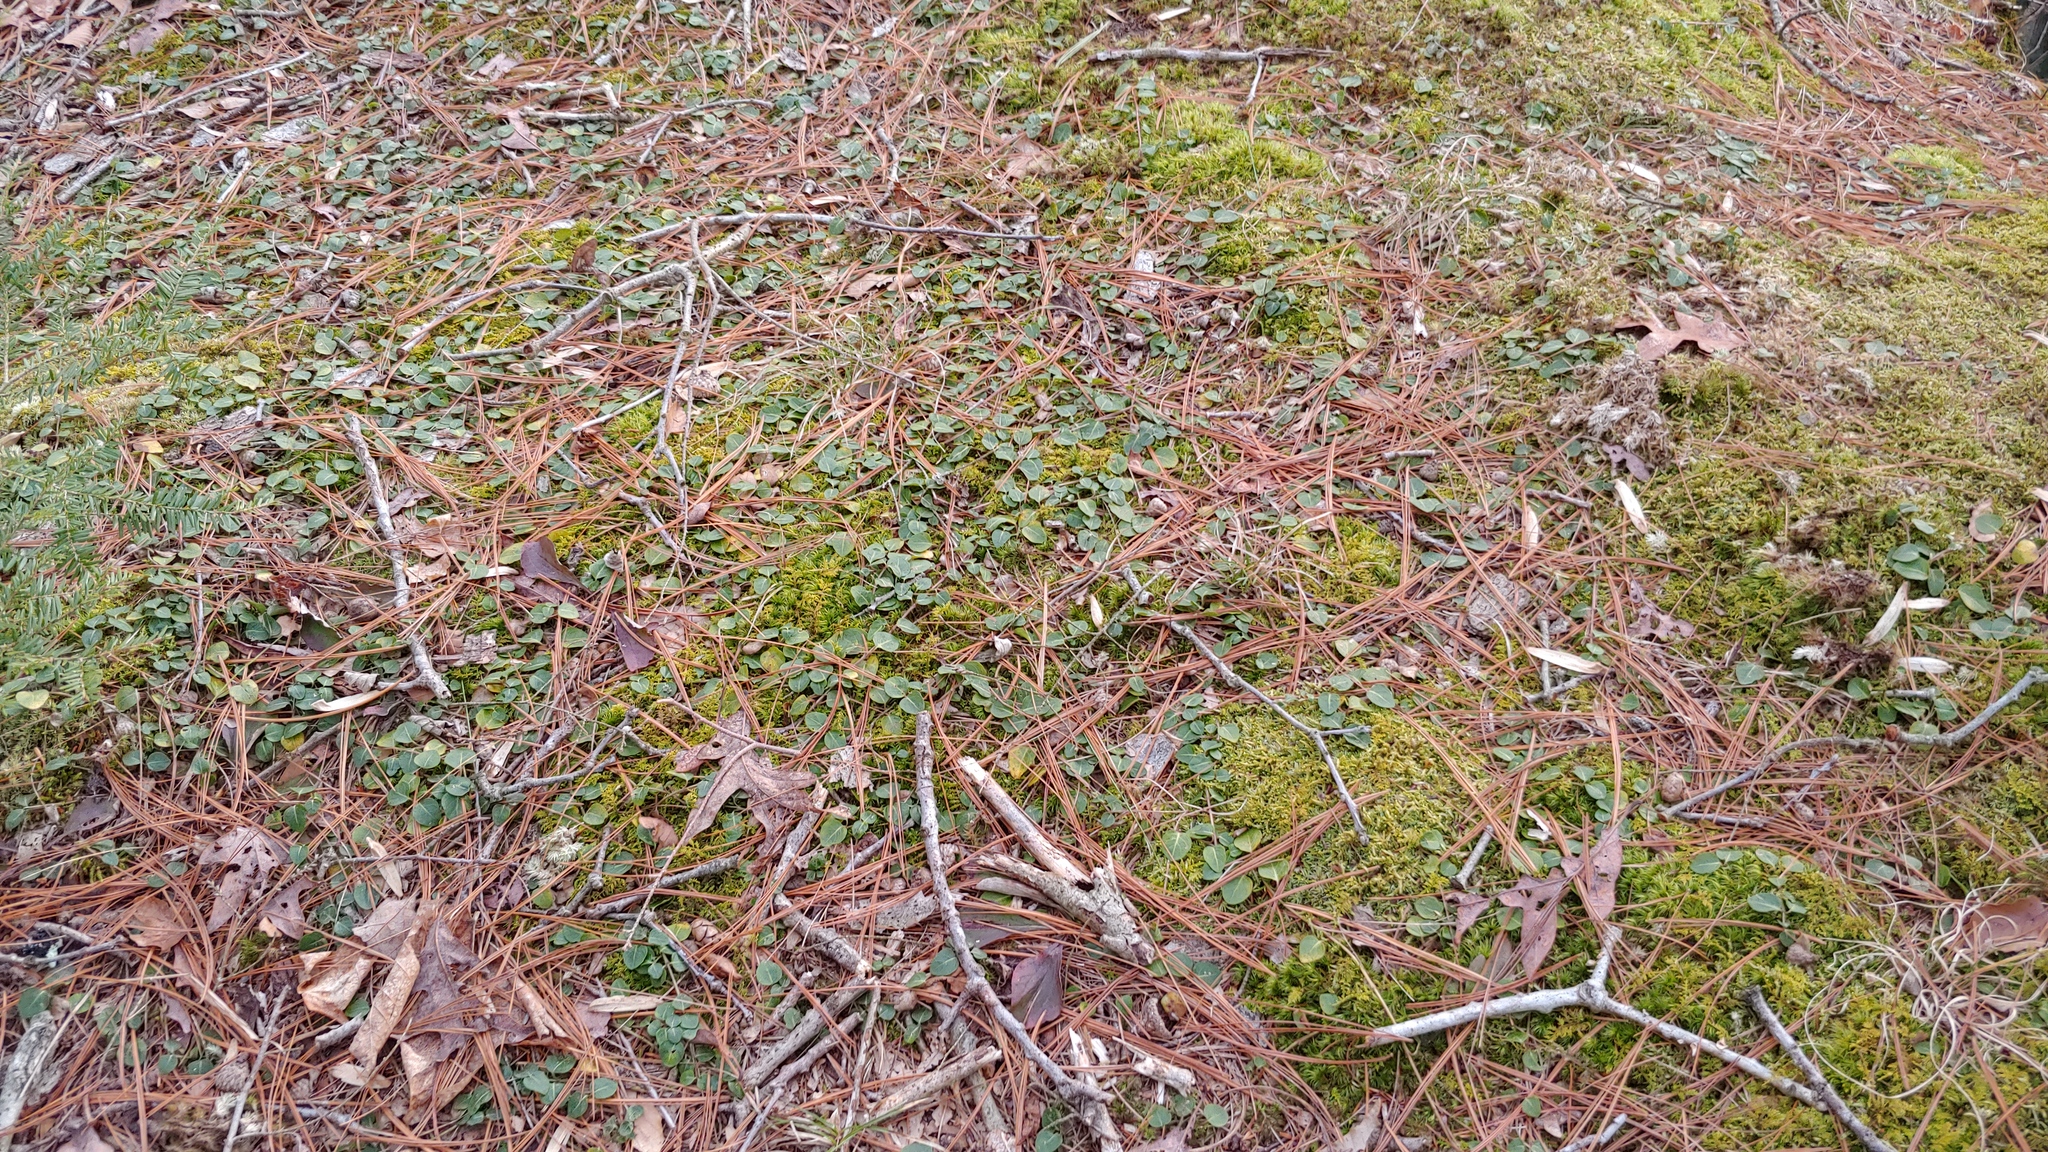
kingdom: Plantae
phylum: Tracheophyta
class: Magnoliopsida
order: Gentianales
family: Rubiaceae
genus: Mitchella
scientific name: Mitchella repens
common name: Partridge-berry
